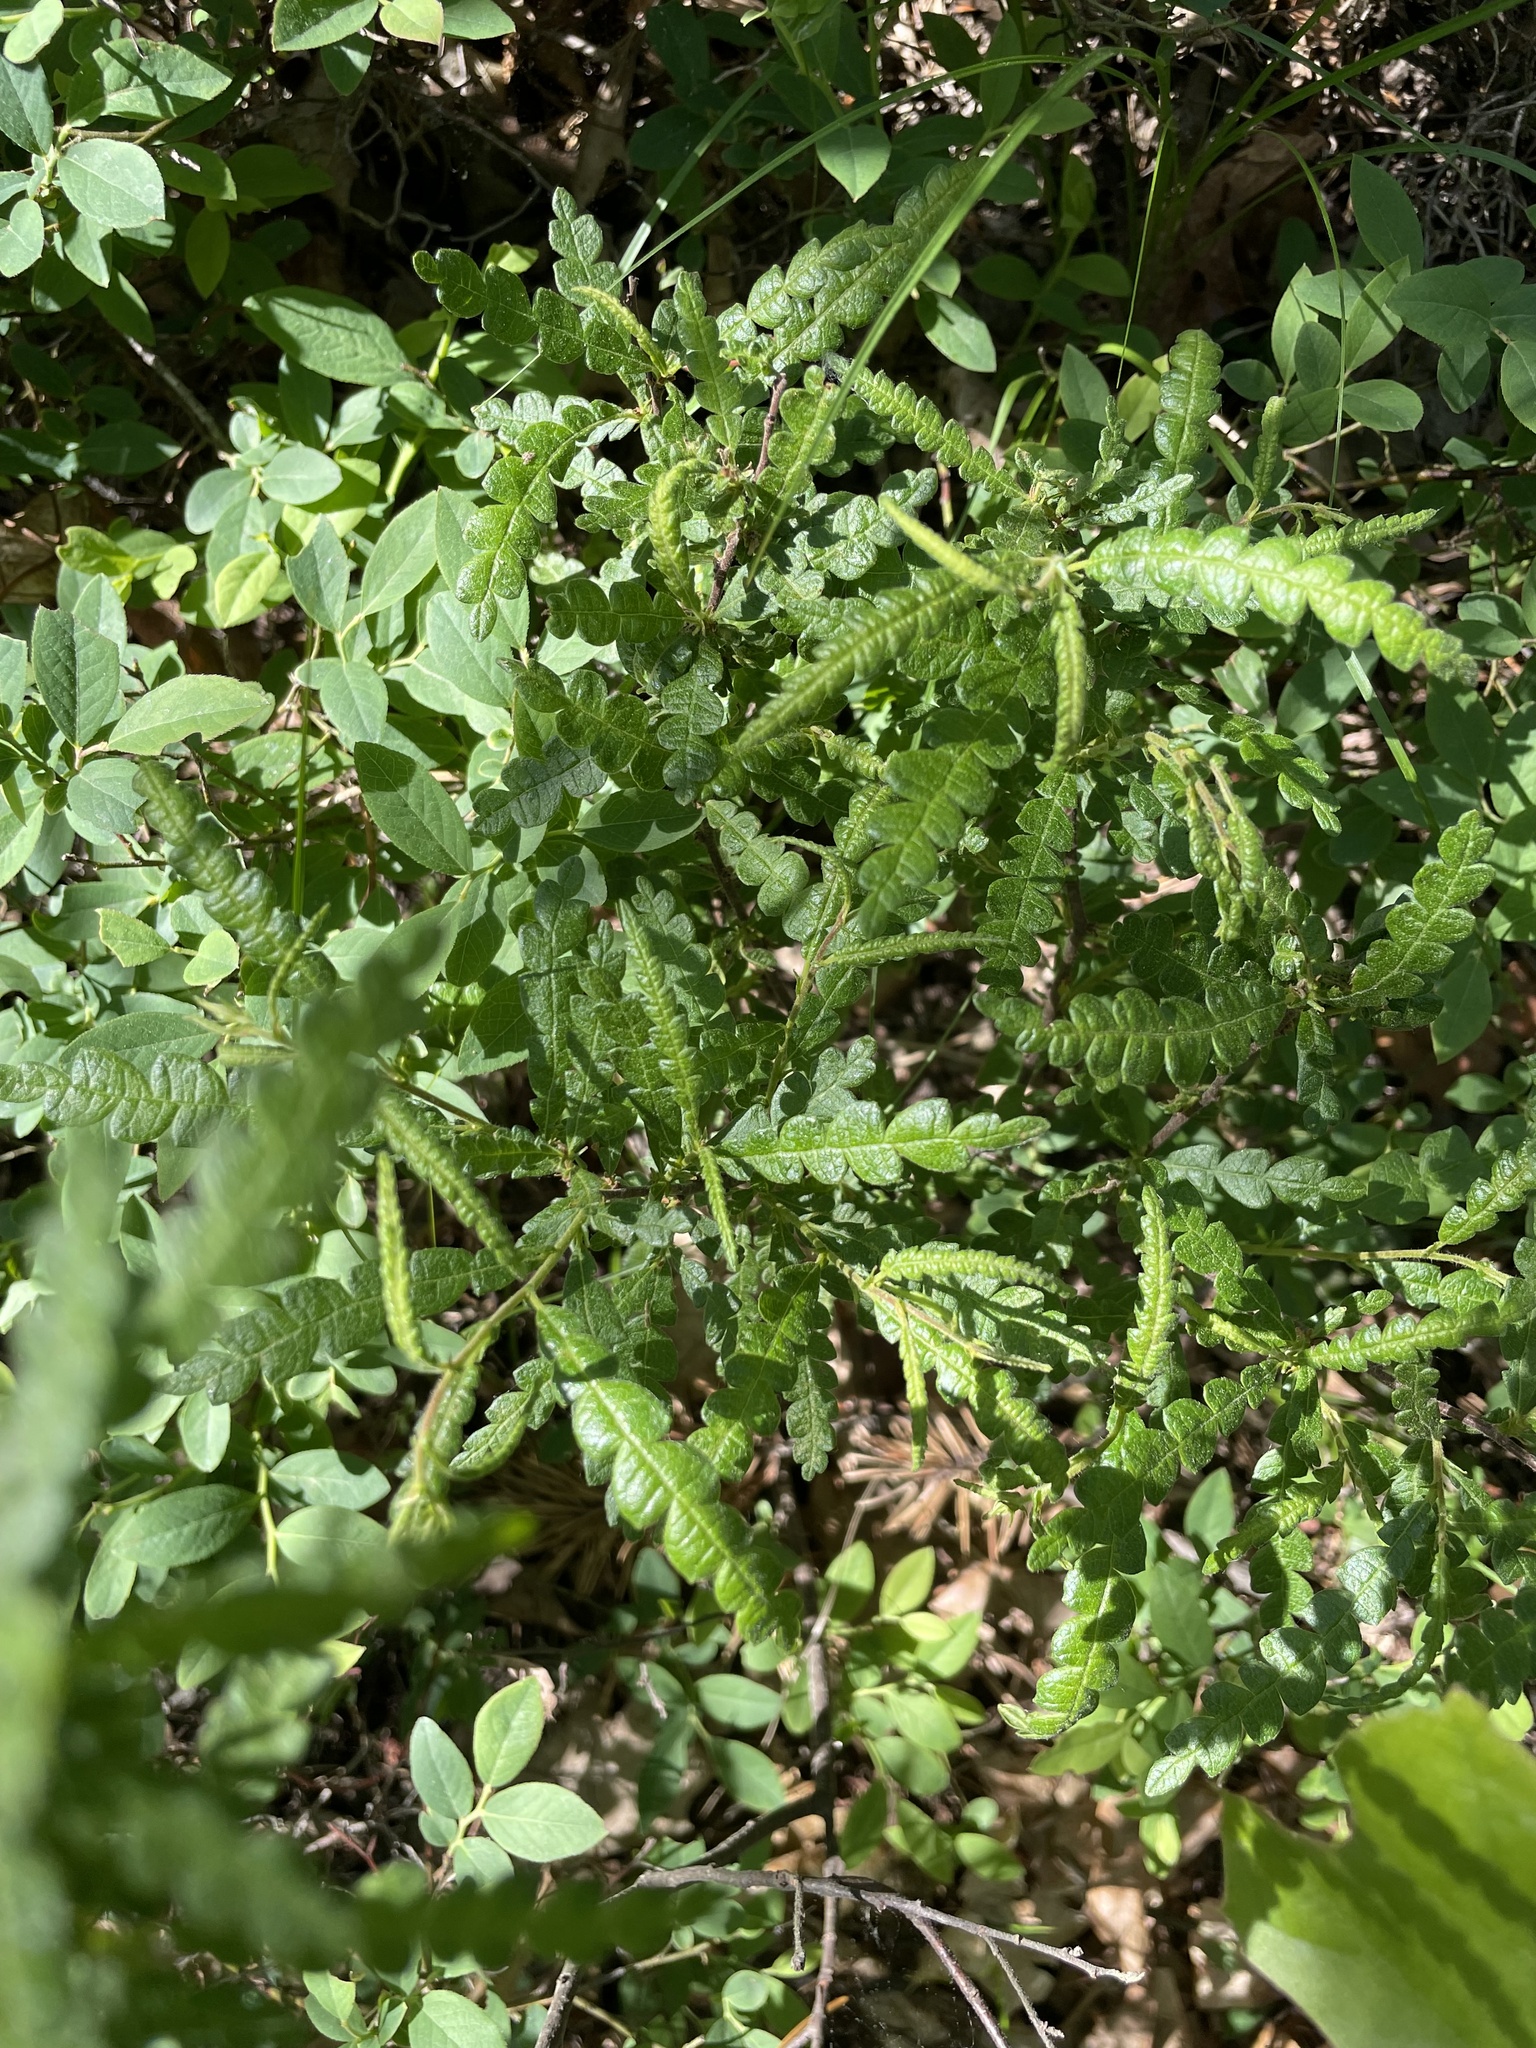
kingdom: Plantae
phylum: Tracheophyta
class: Magnoliopsida
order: Fagales
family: Myricaceae
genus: Comptonia
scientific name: Comptonia peregrina
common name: Sweet-fern
